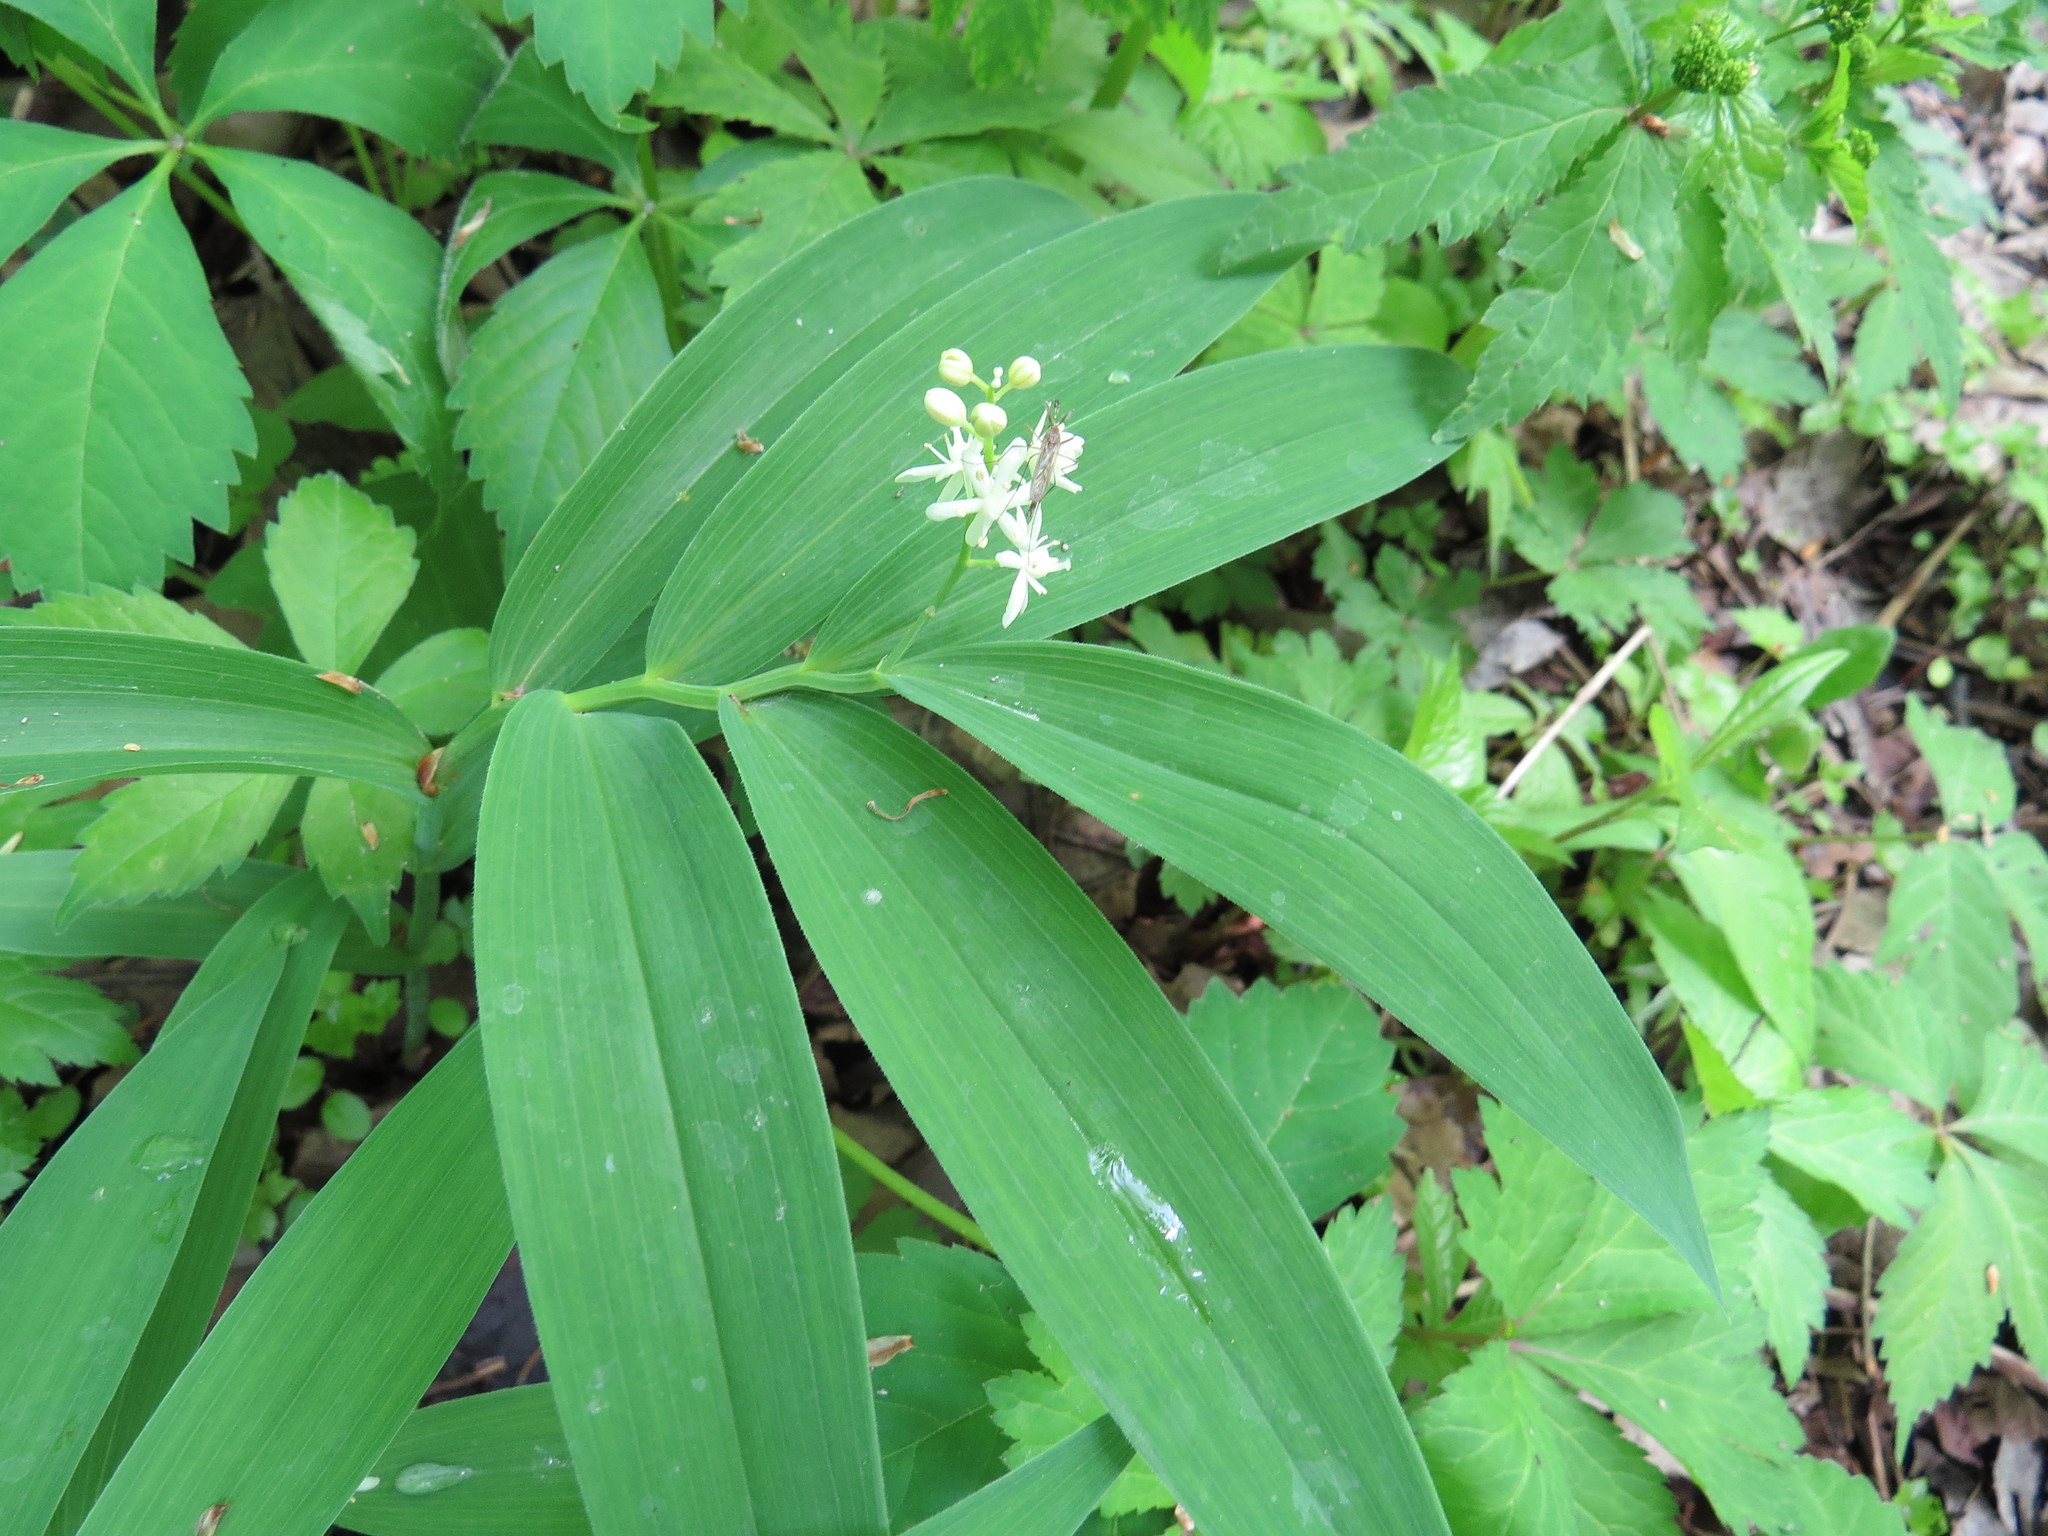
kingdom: Plantae
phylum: Tracheophyta
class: Liliopsida
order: Asparagales
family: Asparagaceae
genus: Maianthemum
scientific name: Maianthemum stellatum
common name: Little false solomon's seal
